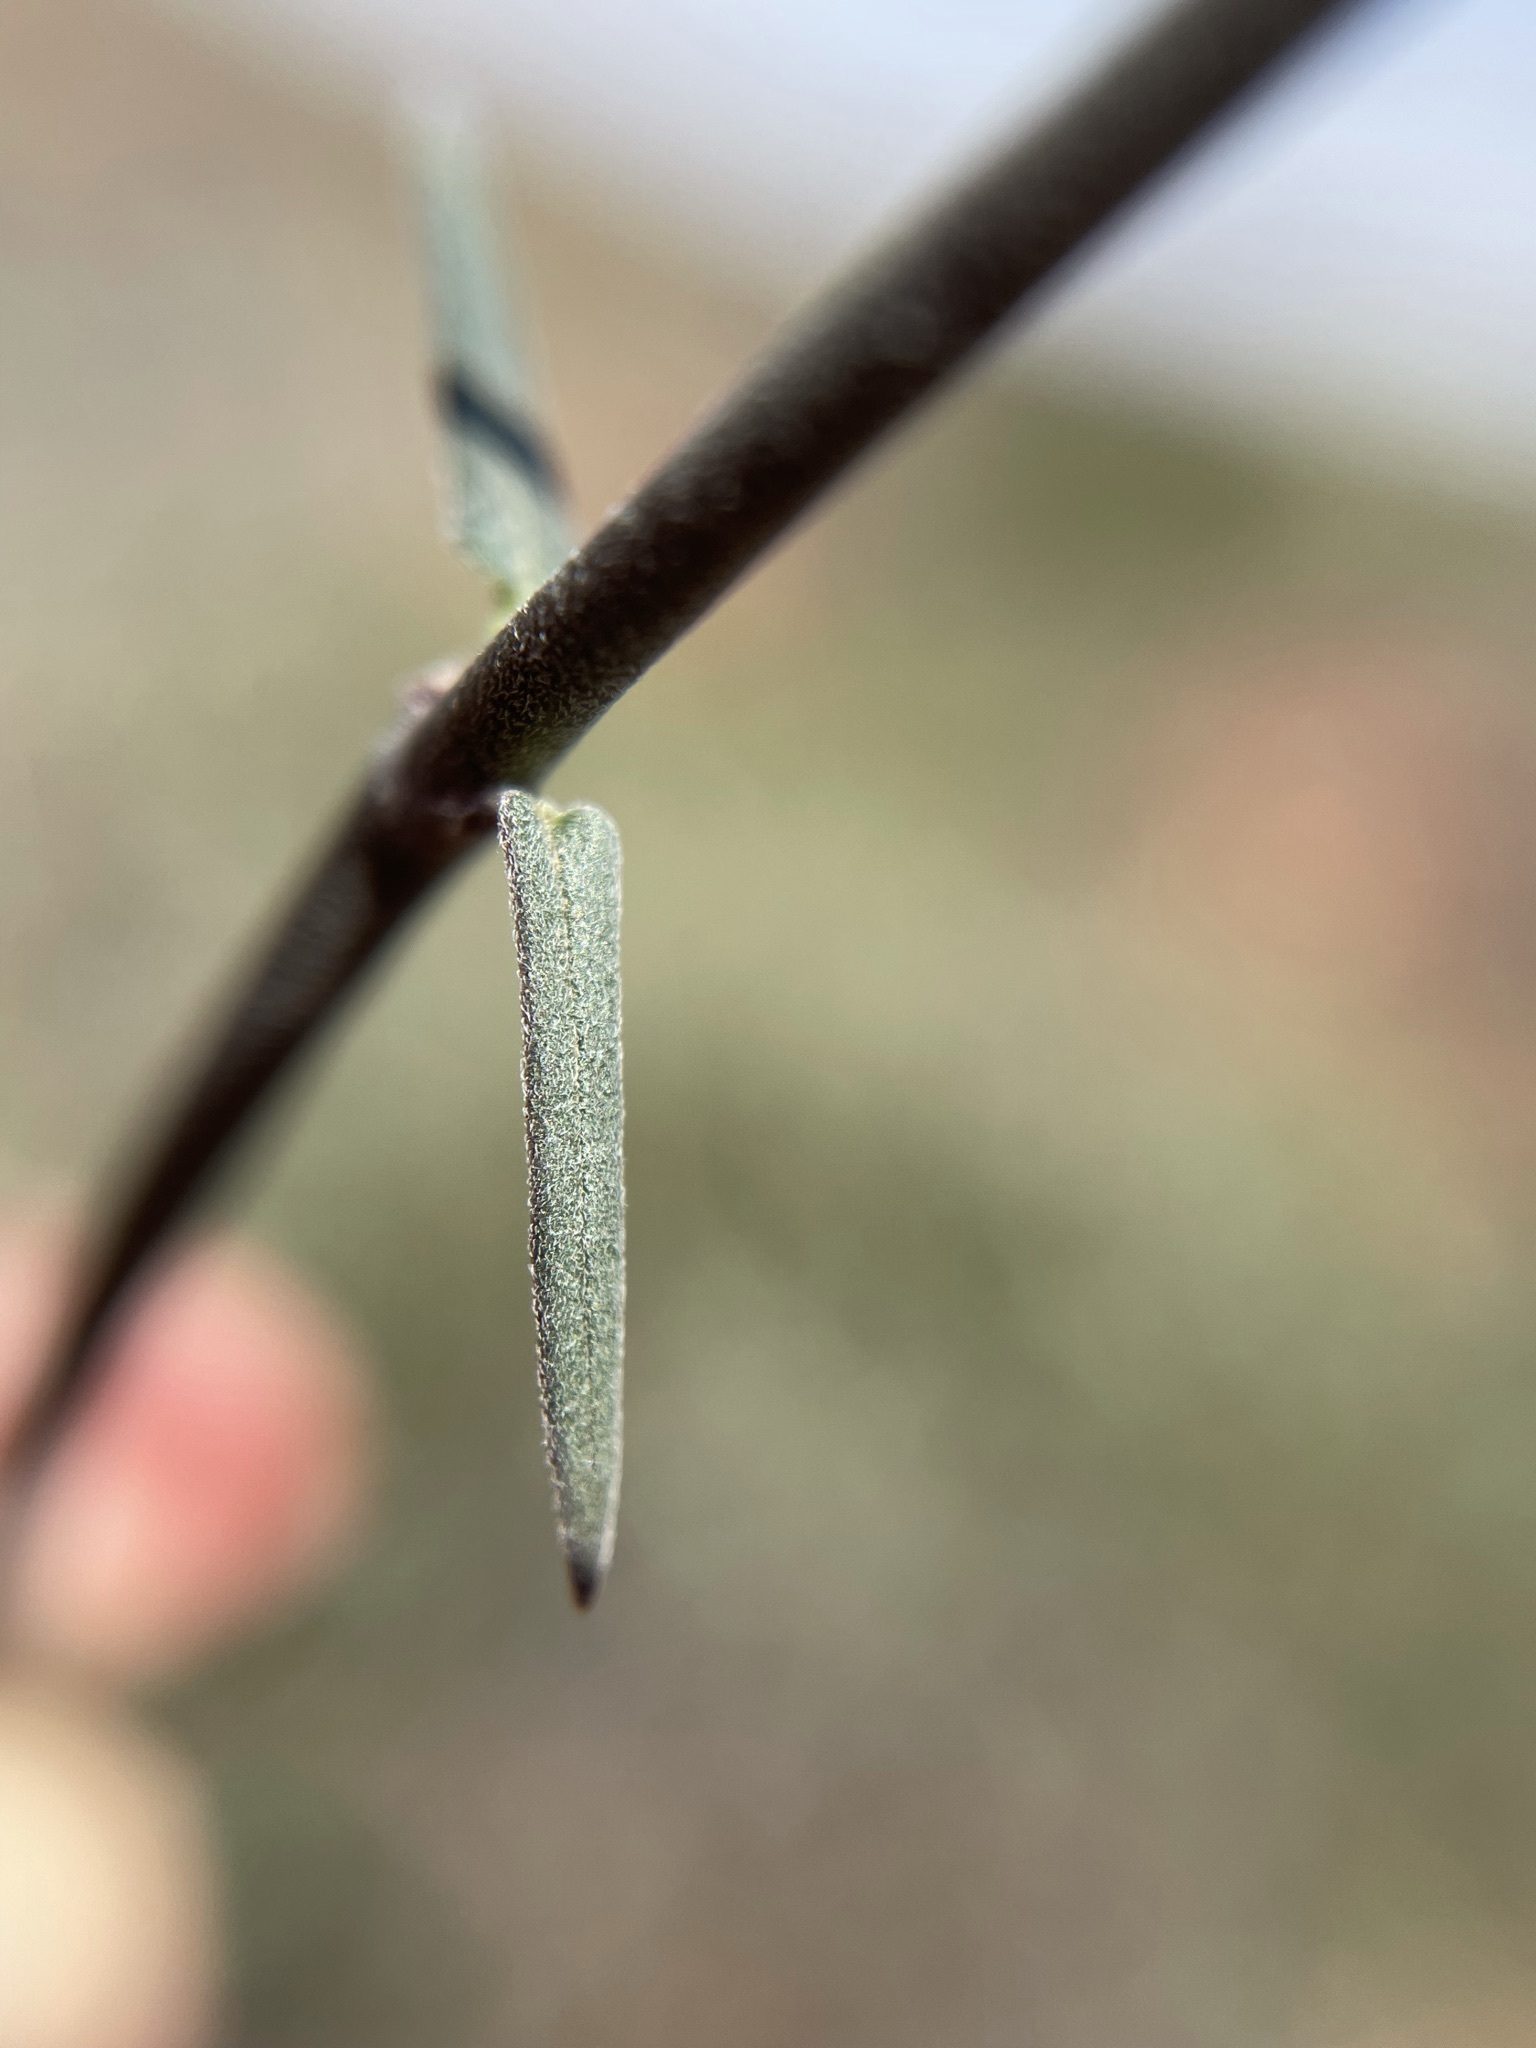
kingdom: Plantae
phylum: Tracheophyta
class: Magnoliopsida
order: Gentianales
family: Apocynaceae
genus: Microloma
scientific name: Microloma sagittatum
